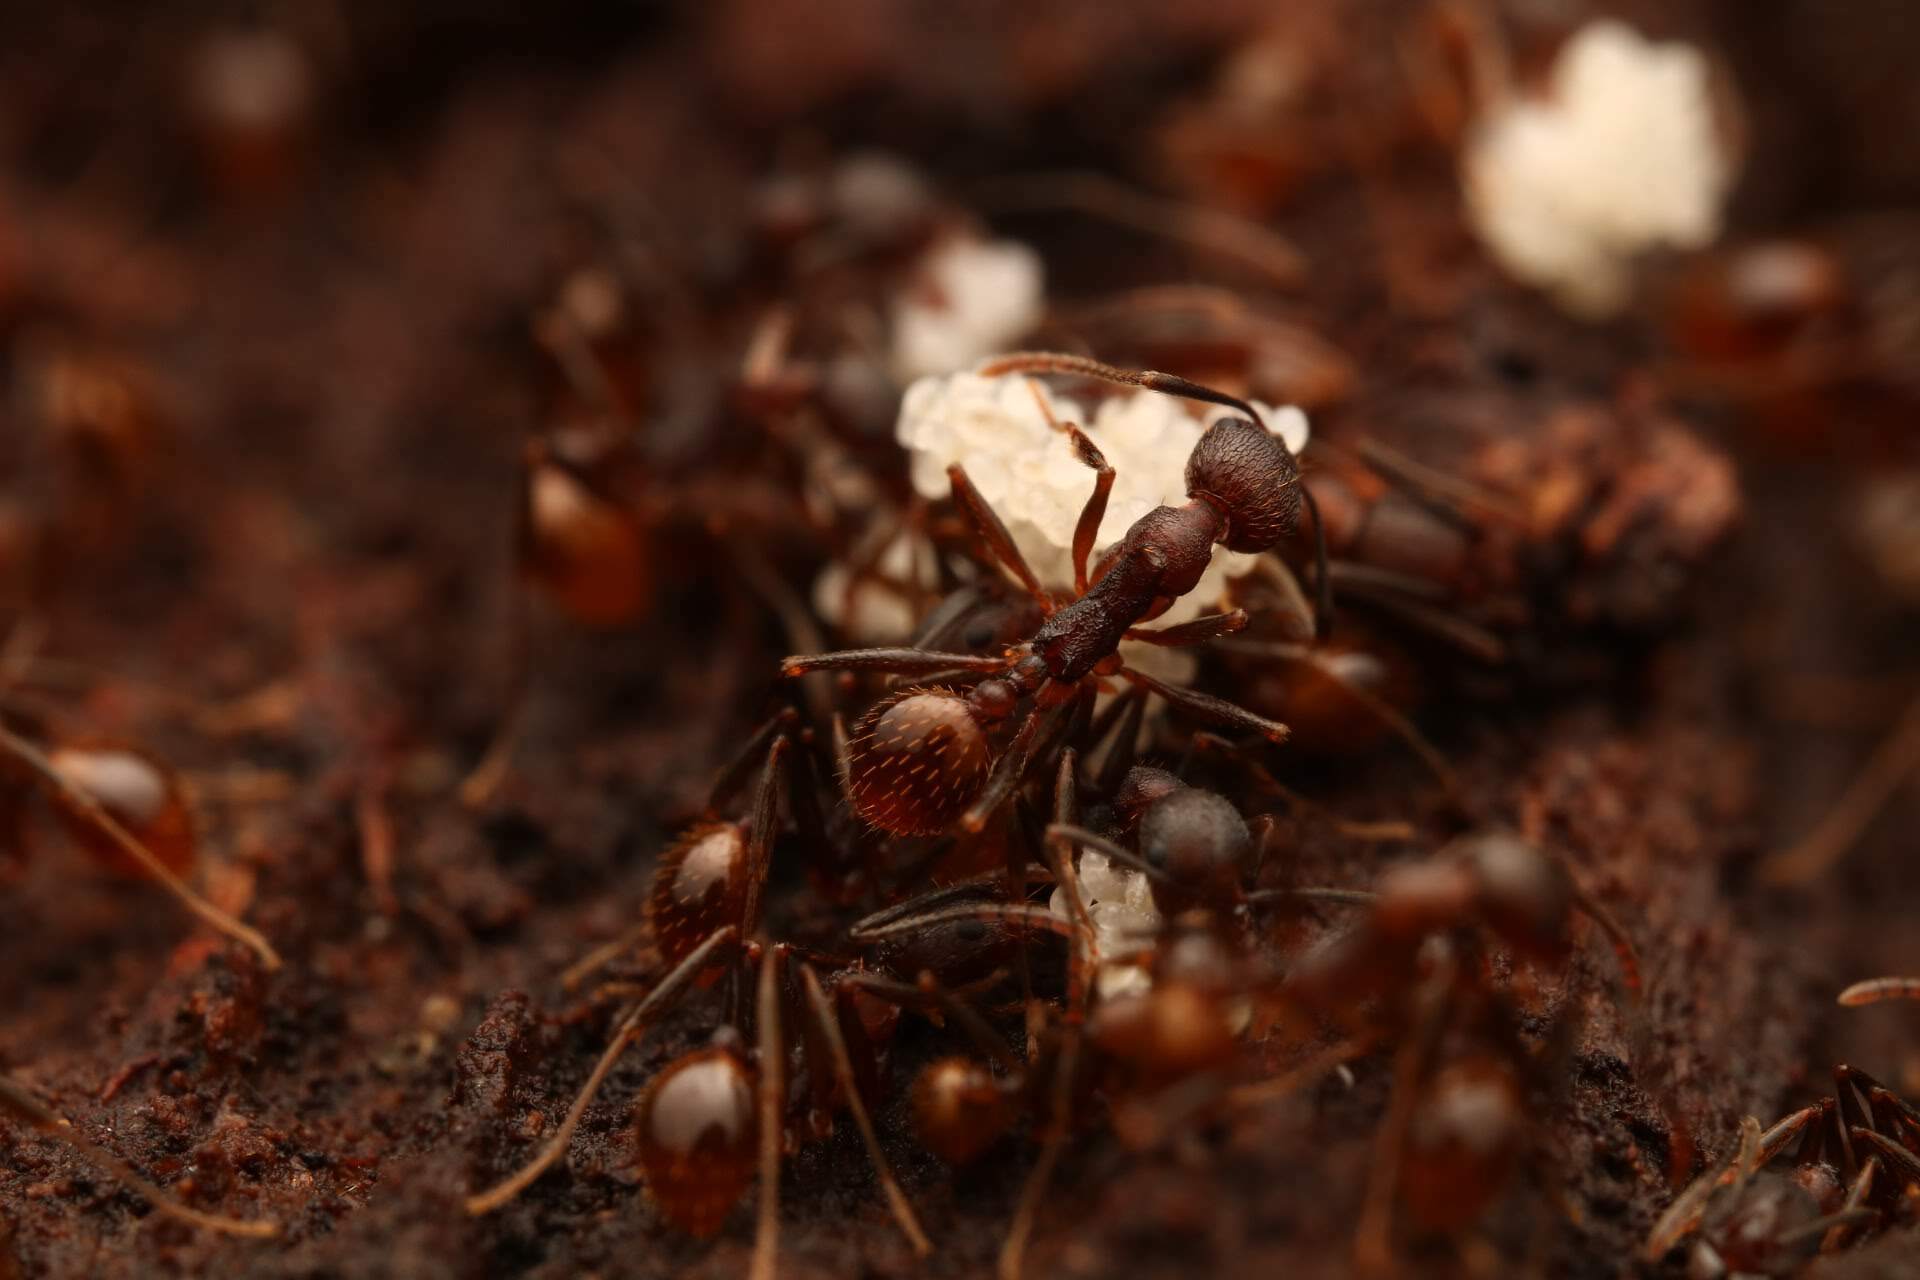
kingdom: Animalia
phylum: Arthropoda
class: Insecta
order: Hymenoptera
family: Formicidae
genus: Aphaenogaster
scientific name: Aphaenogaster fulva
